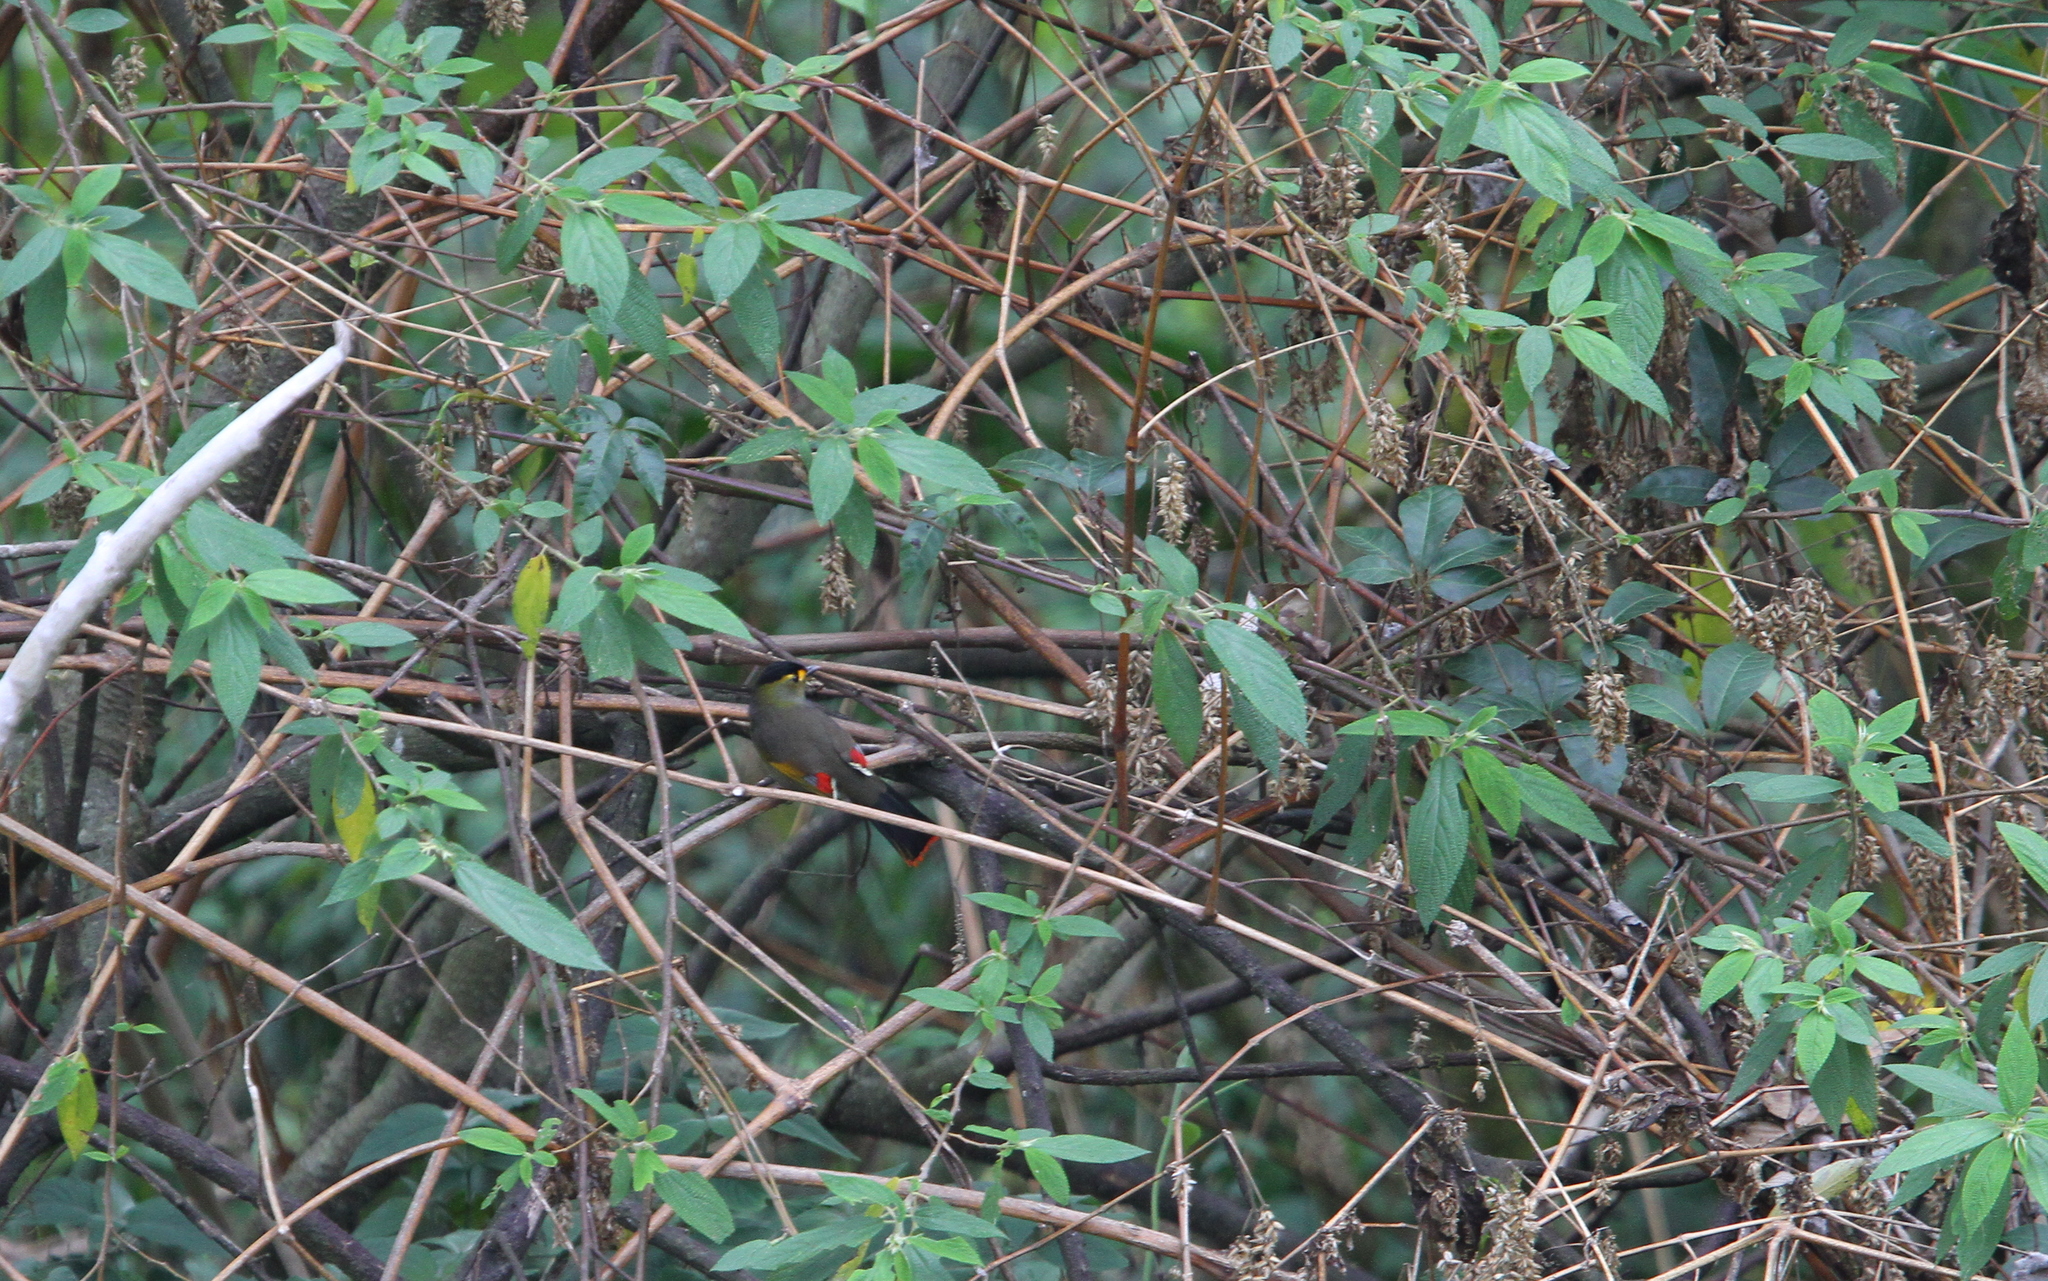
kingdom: Animalia
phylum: Chordata
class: Aves
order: Passeriformes
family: Leiothrichidae
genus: Liocichla
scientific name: Liocichla bugunorum
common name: Bugun liocichla
